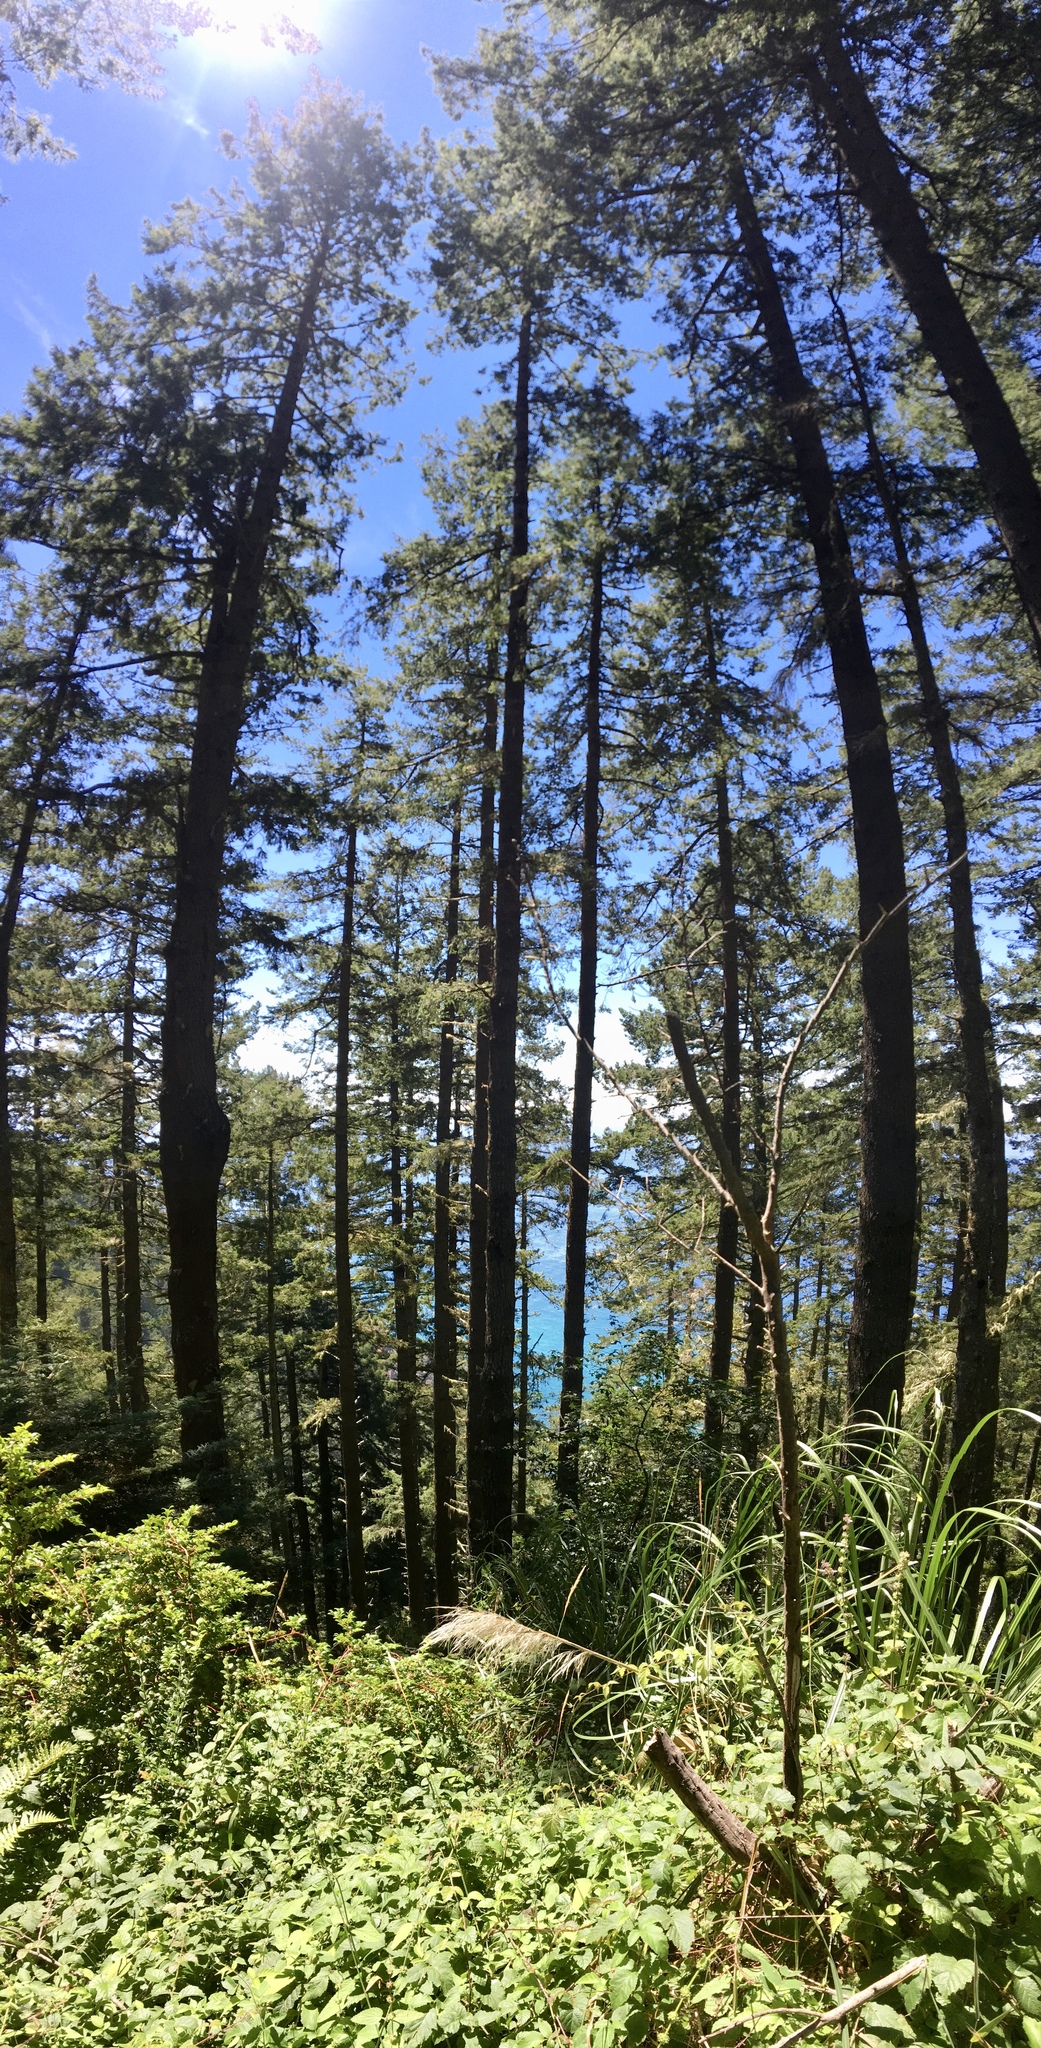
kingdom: Plantae
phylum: Tracheophyta
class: Pinopsida
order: Pinales
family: Pinaceae
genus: Pseudotsuga
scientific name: Pseudotsuga menziesii
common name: Douglas fir
